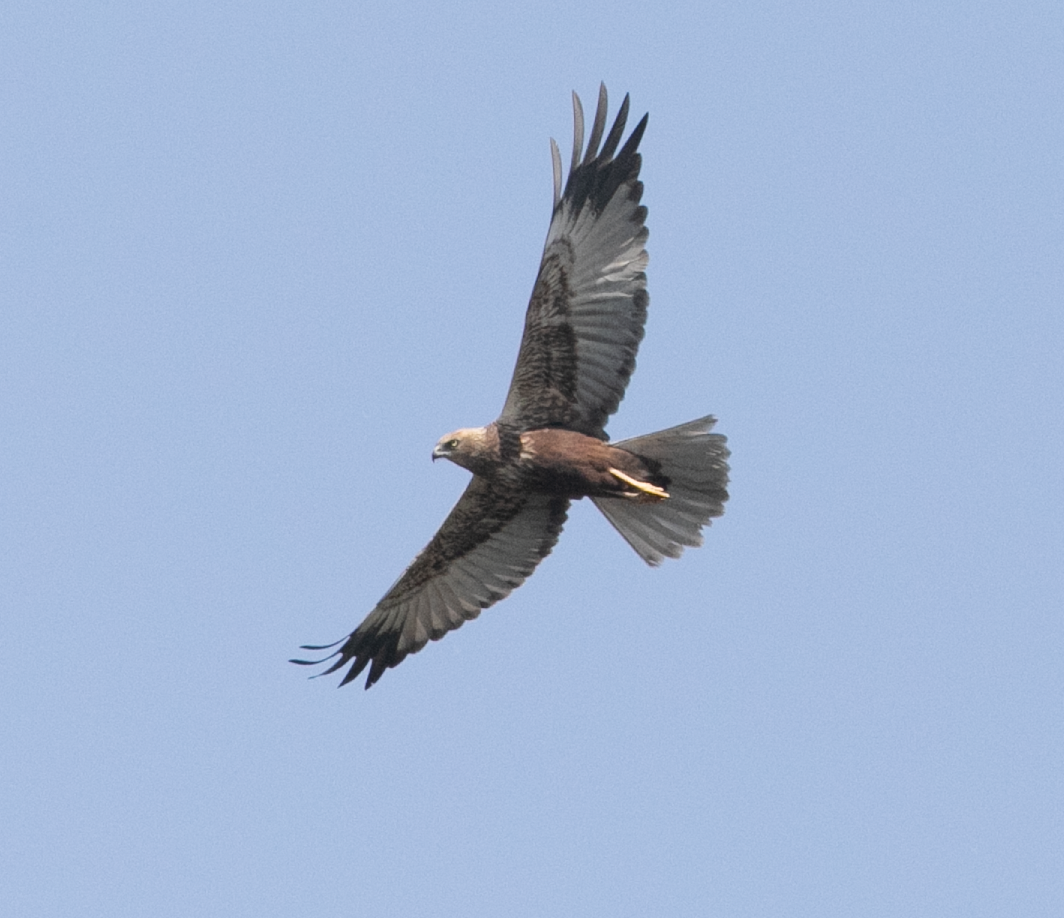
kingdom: Animalia
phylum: Chordata
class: Aves
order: Accipitriformes
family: Accipitridae
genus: Circus
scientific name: Circus aeruginosus
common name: Western marsh harrier
